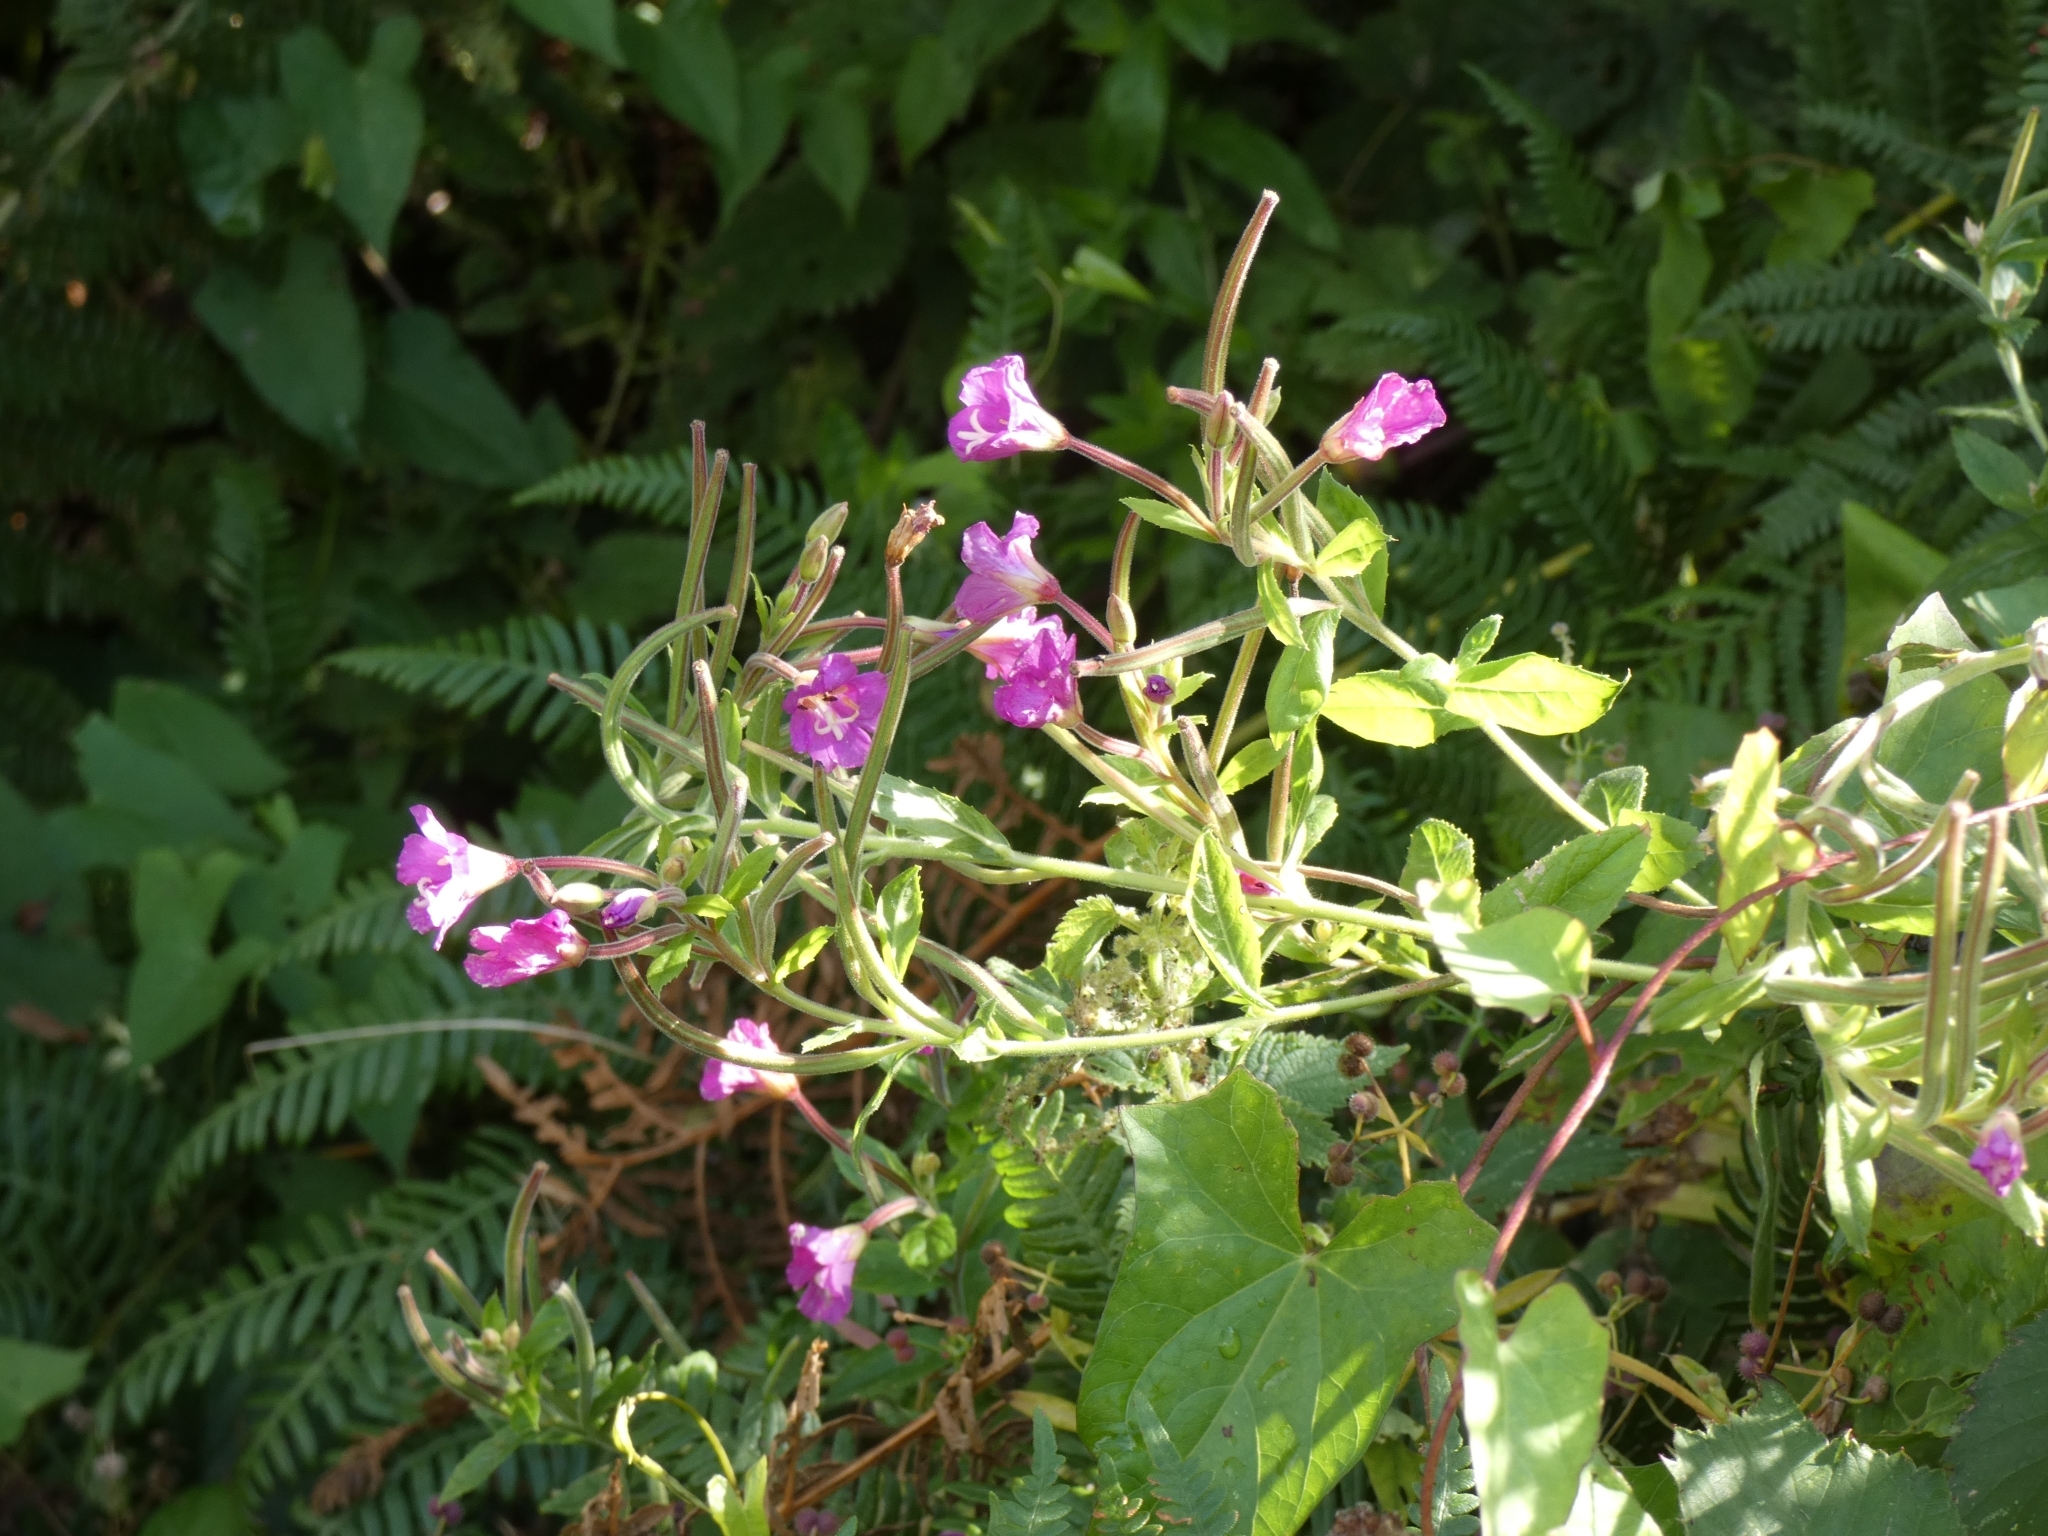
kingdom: Plantae
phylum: Tracheophyta
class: Magnoliopsida
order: Myrtales
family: Onagraceae
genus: Epilobium
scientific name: Epilobium hirsutum
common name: Great willowherb
